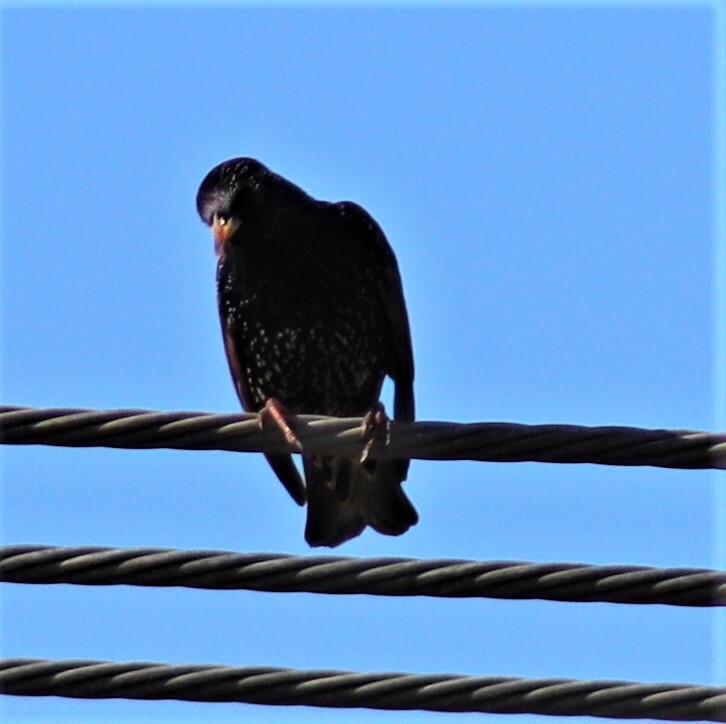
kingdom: Animalia
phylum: Chordata
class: Aves
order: Passeriformes
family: Sturnidae
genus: Sturnus
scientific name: Sturnus vulgaris
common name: Common starling
